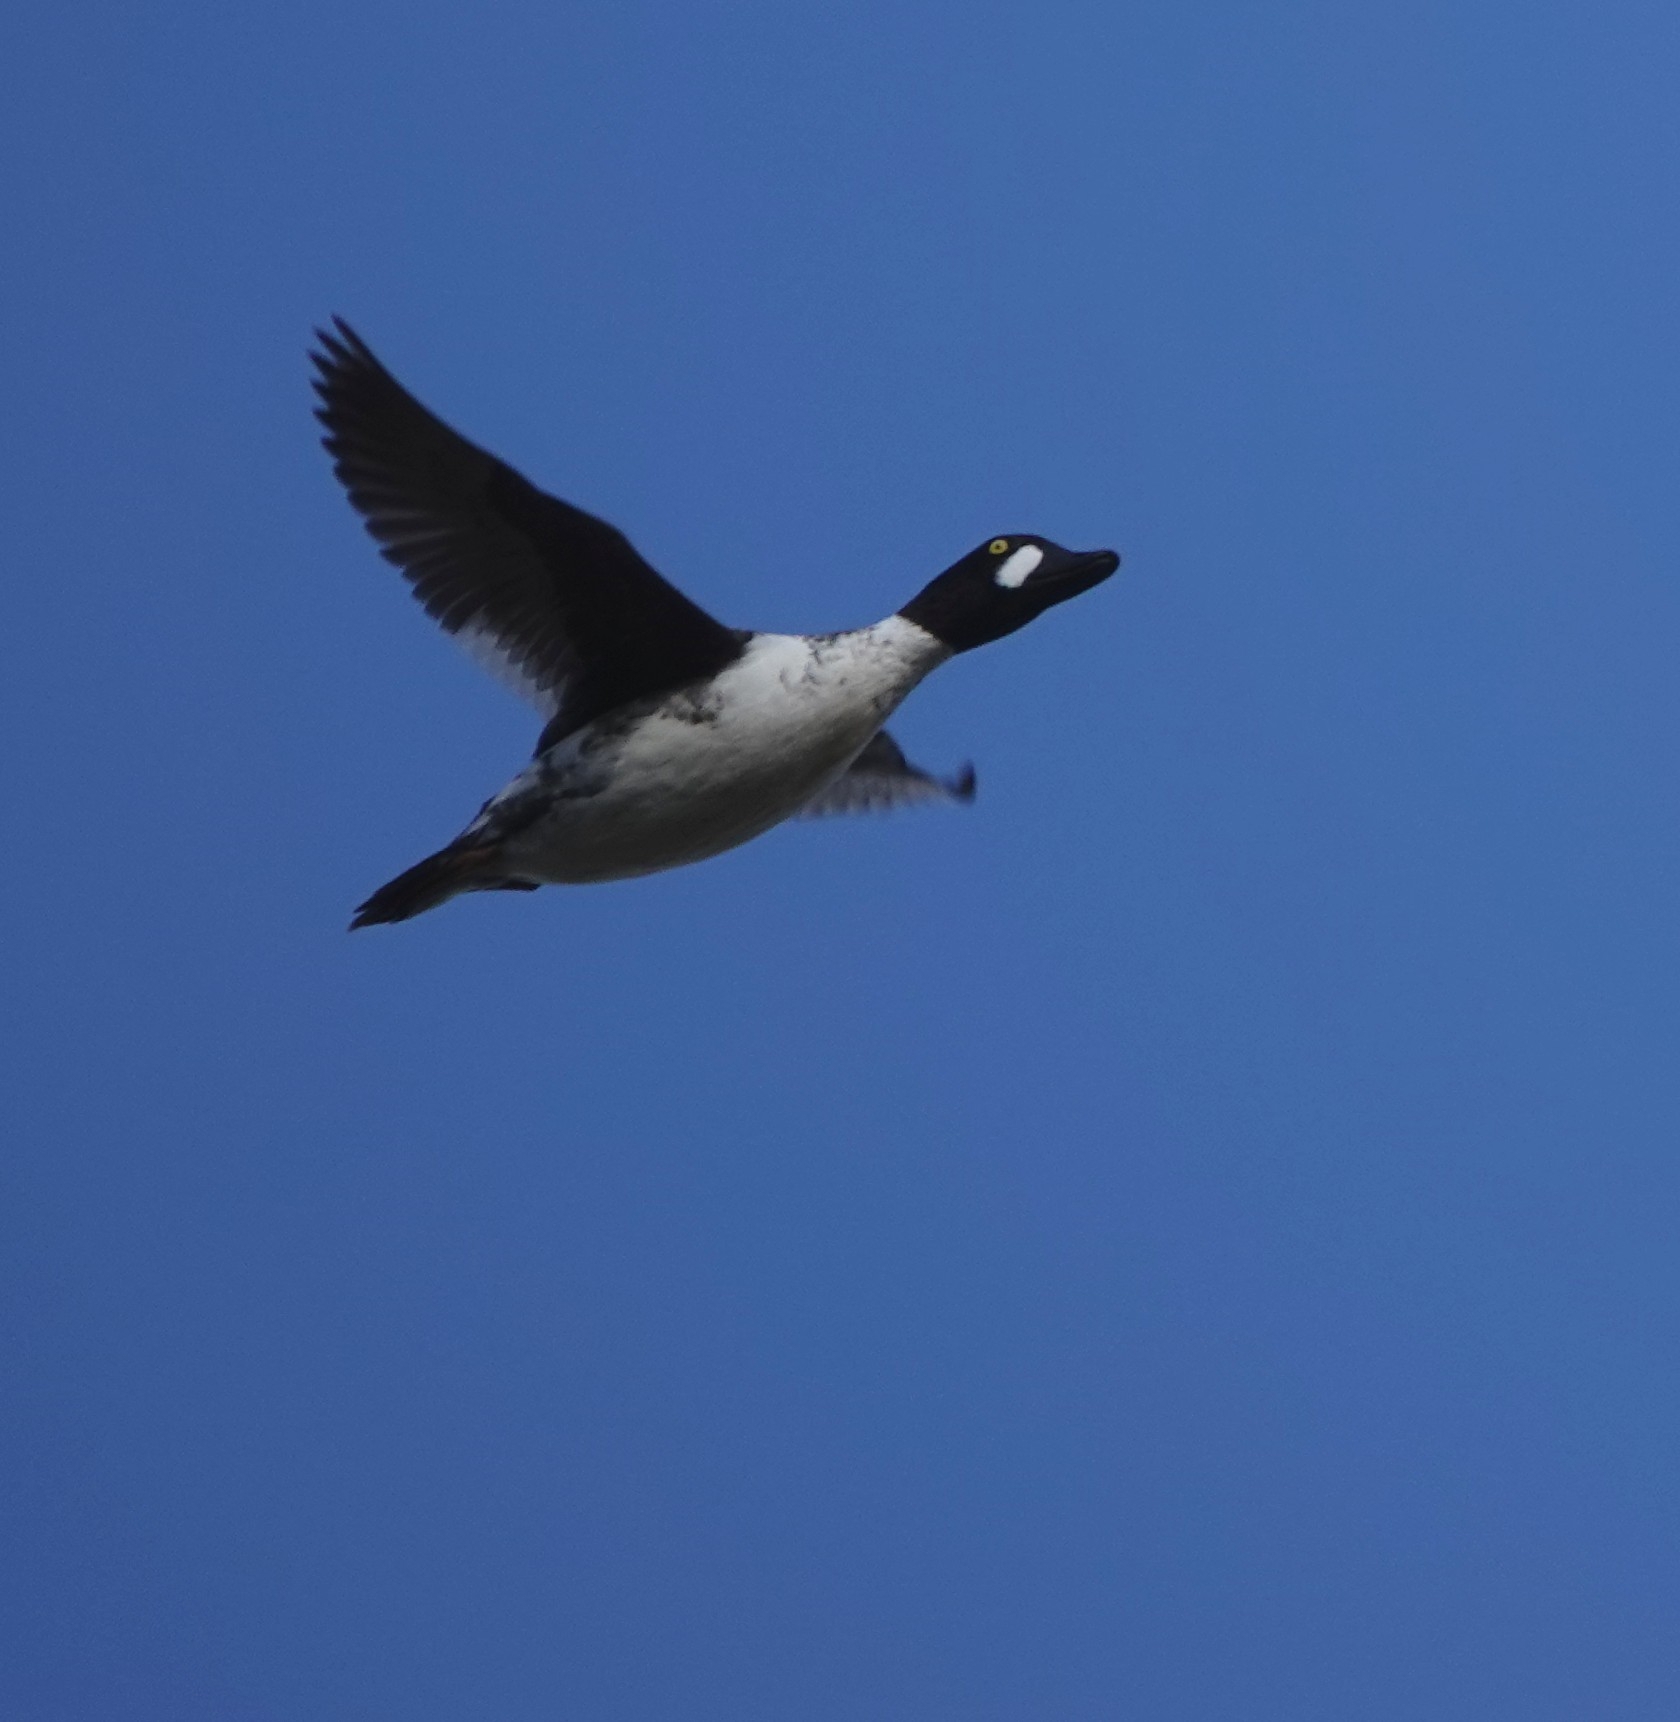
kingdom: Animalia
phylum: Chordata
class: Aves
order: Anseriformes
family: Anatidae
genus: Bucephala
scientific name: Bucephala clangula
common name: Common goldeneye
